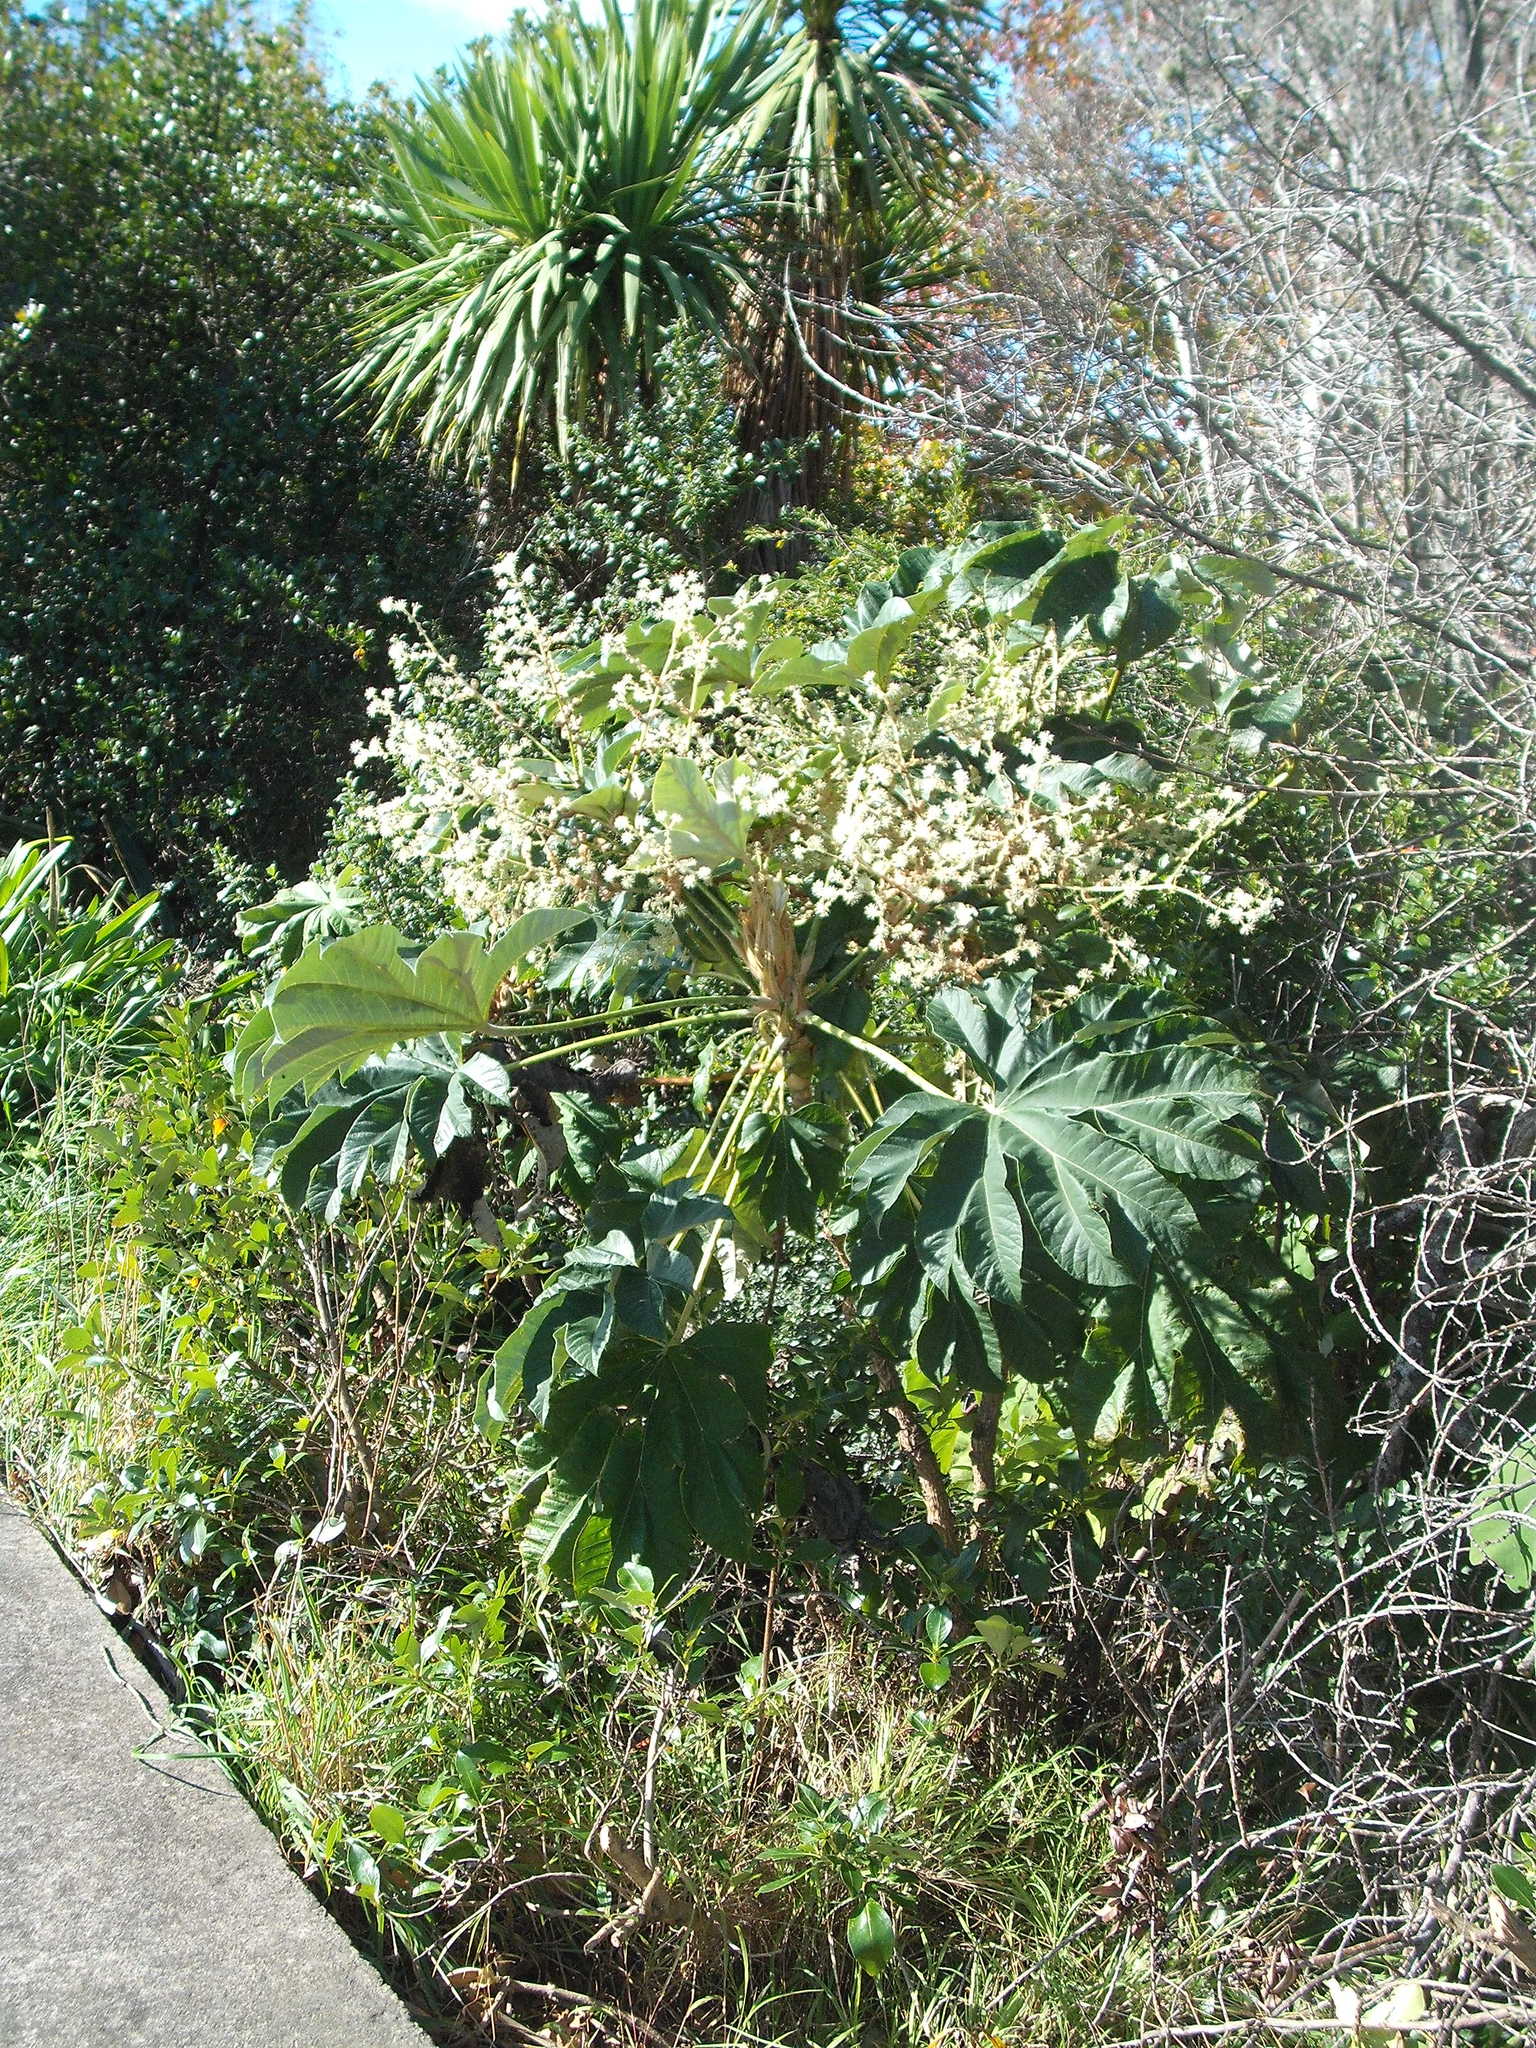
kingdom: Plantae
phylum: Tracheophyta
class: Magnoliopsida
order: Apiales
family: Araliaceae
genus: Tetrapanax
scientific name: Tetrapanax papyrifer
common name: Rice-paper plant
